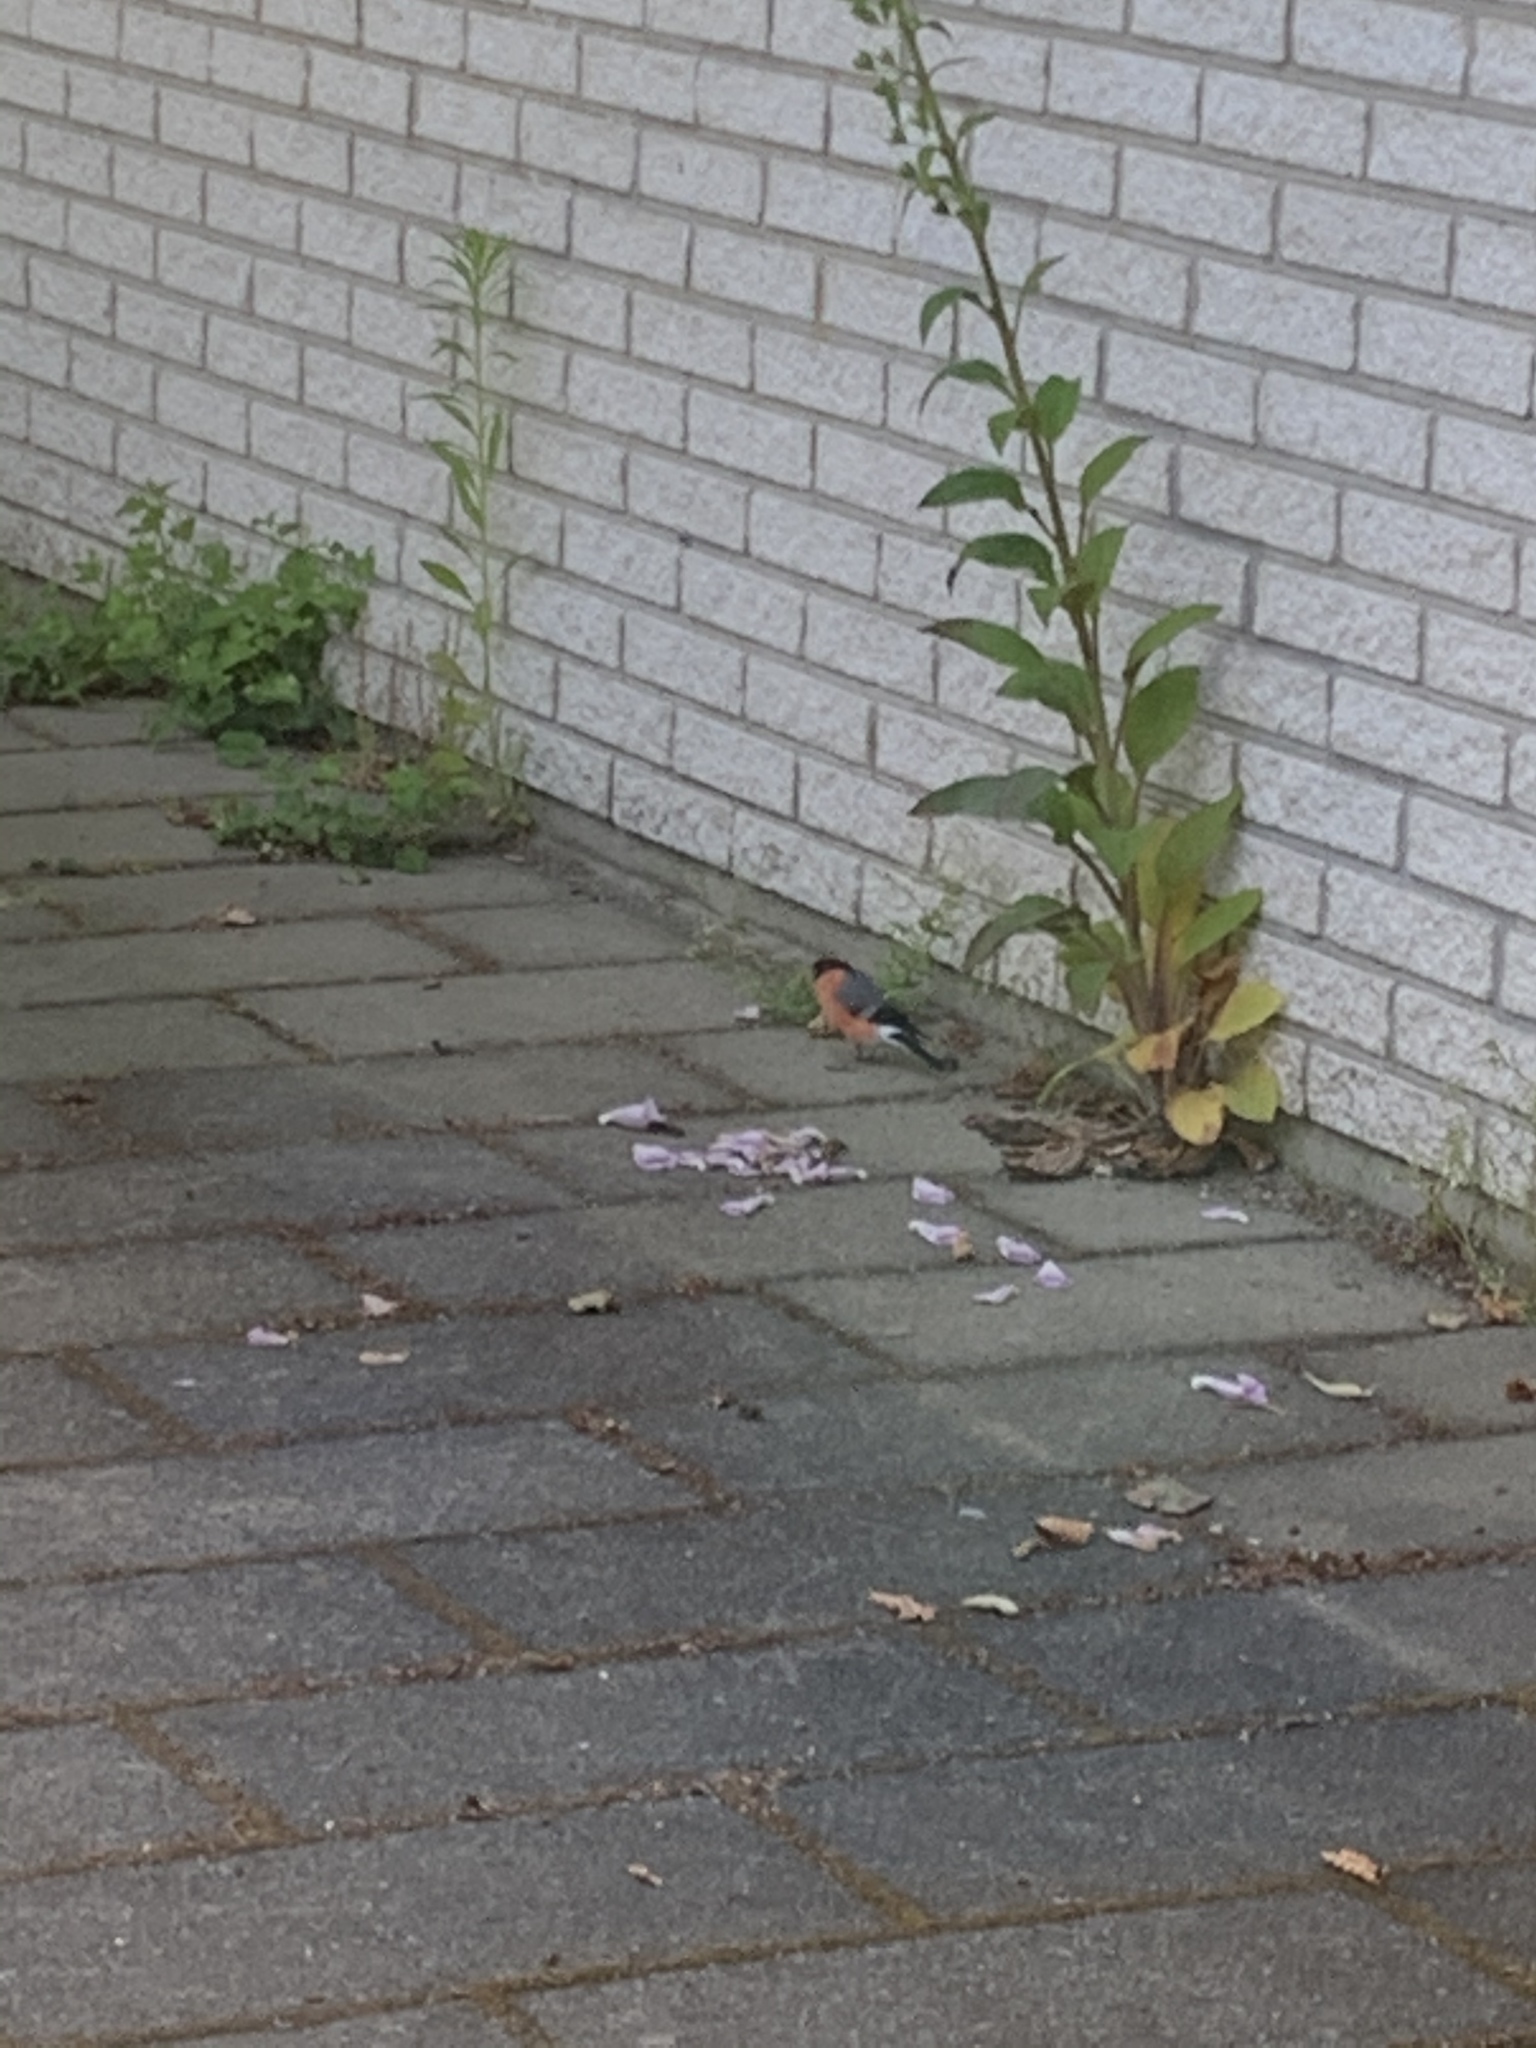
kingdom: Animalia
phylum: Chordata
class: Aves
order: Passeriformes
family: Fringillidae
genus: Pyrrhula
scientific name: Pyrrhula pyrrhula
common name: Eurasian bullfinch
